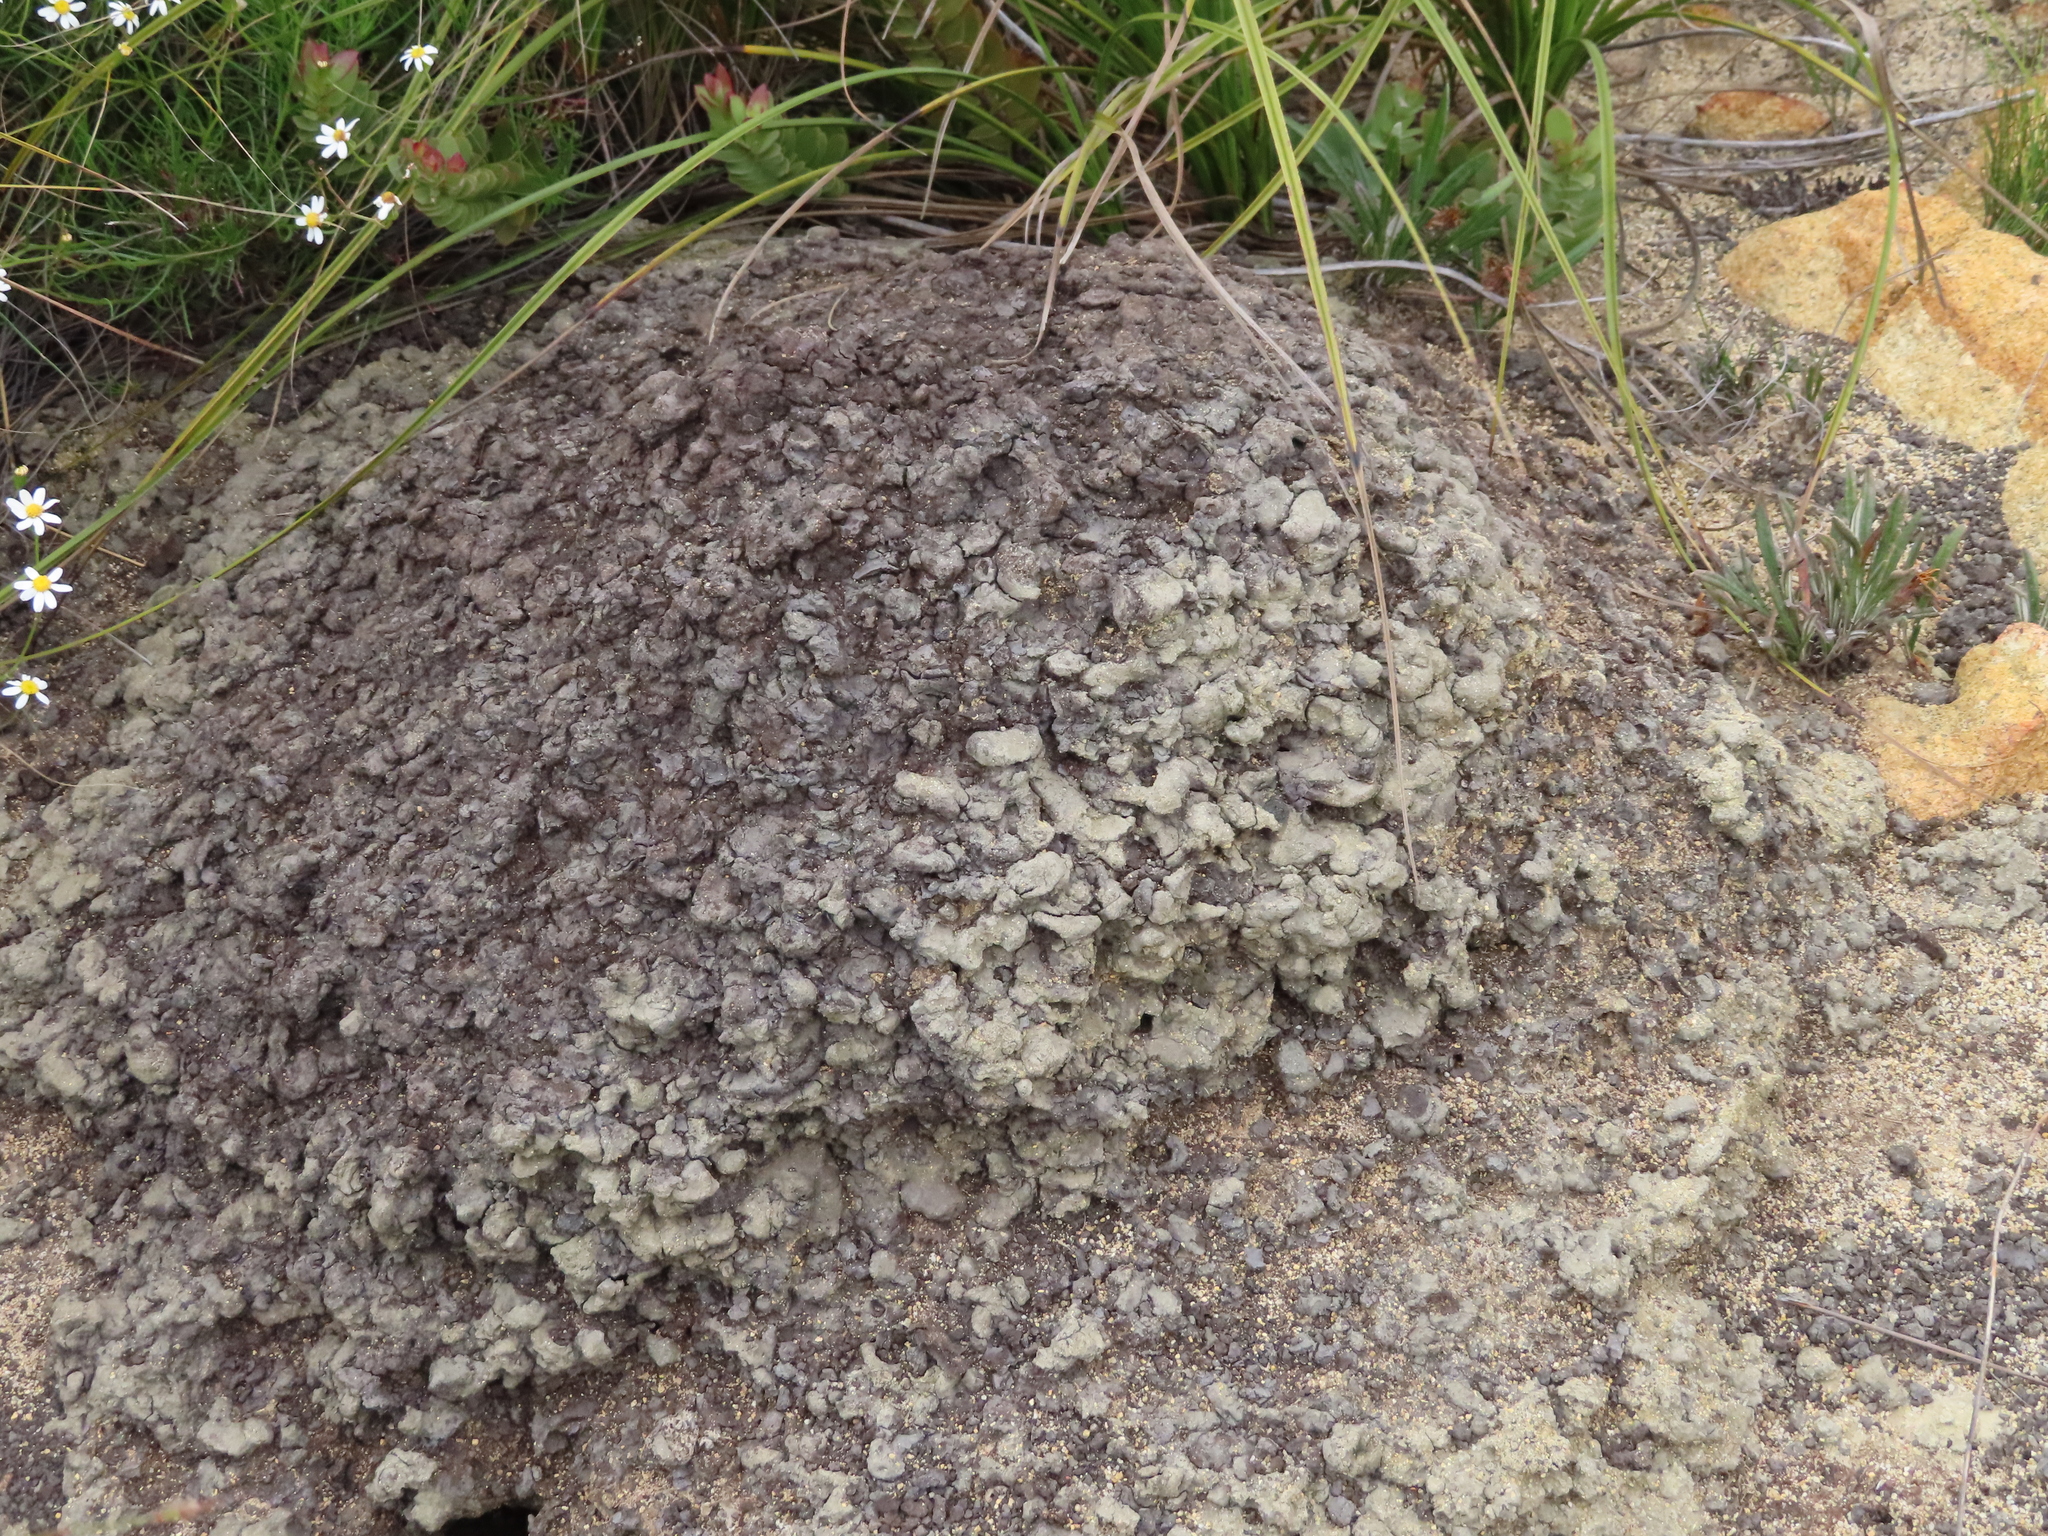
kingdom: Animalia
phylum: Arthropoda
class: Insecta
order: Blattodea
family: Termitidae
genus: Amitermes
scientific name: Amitermes hastatus
